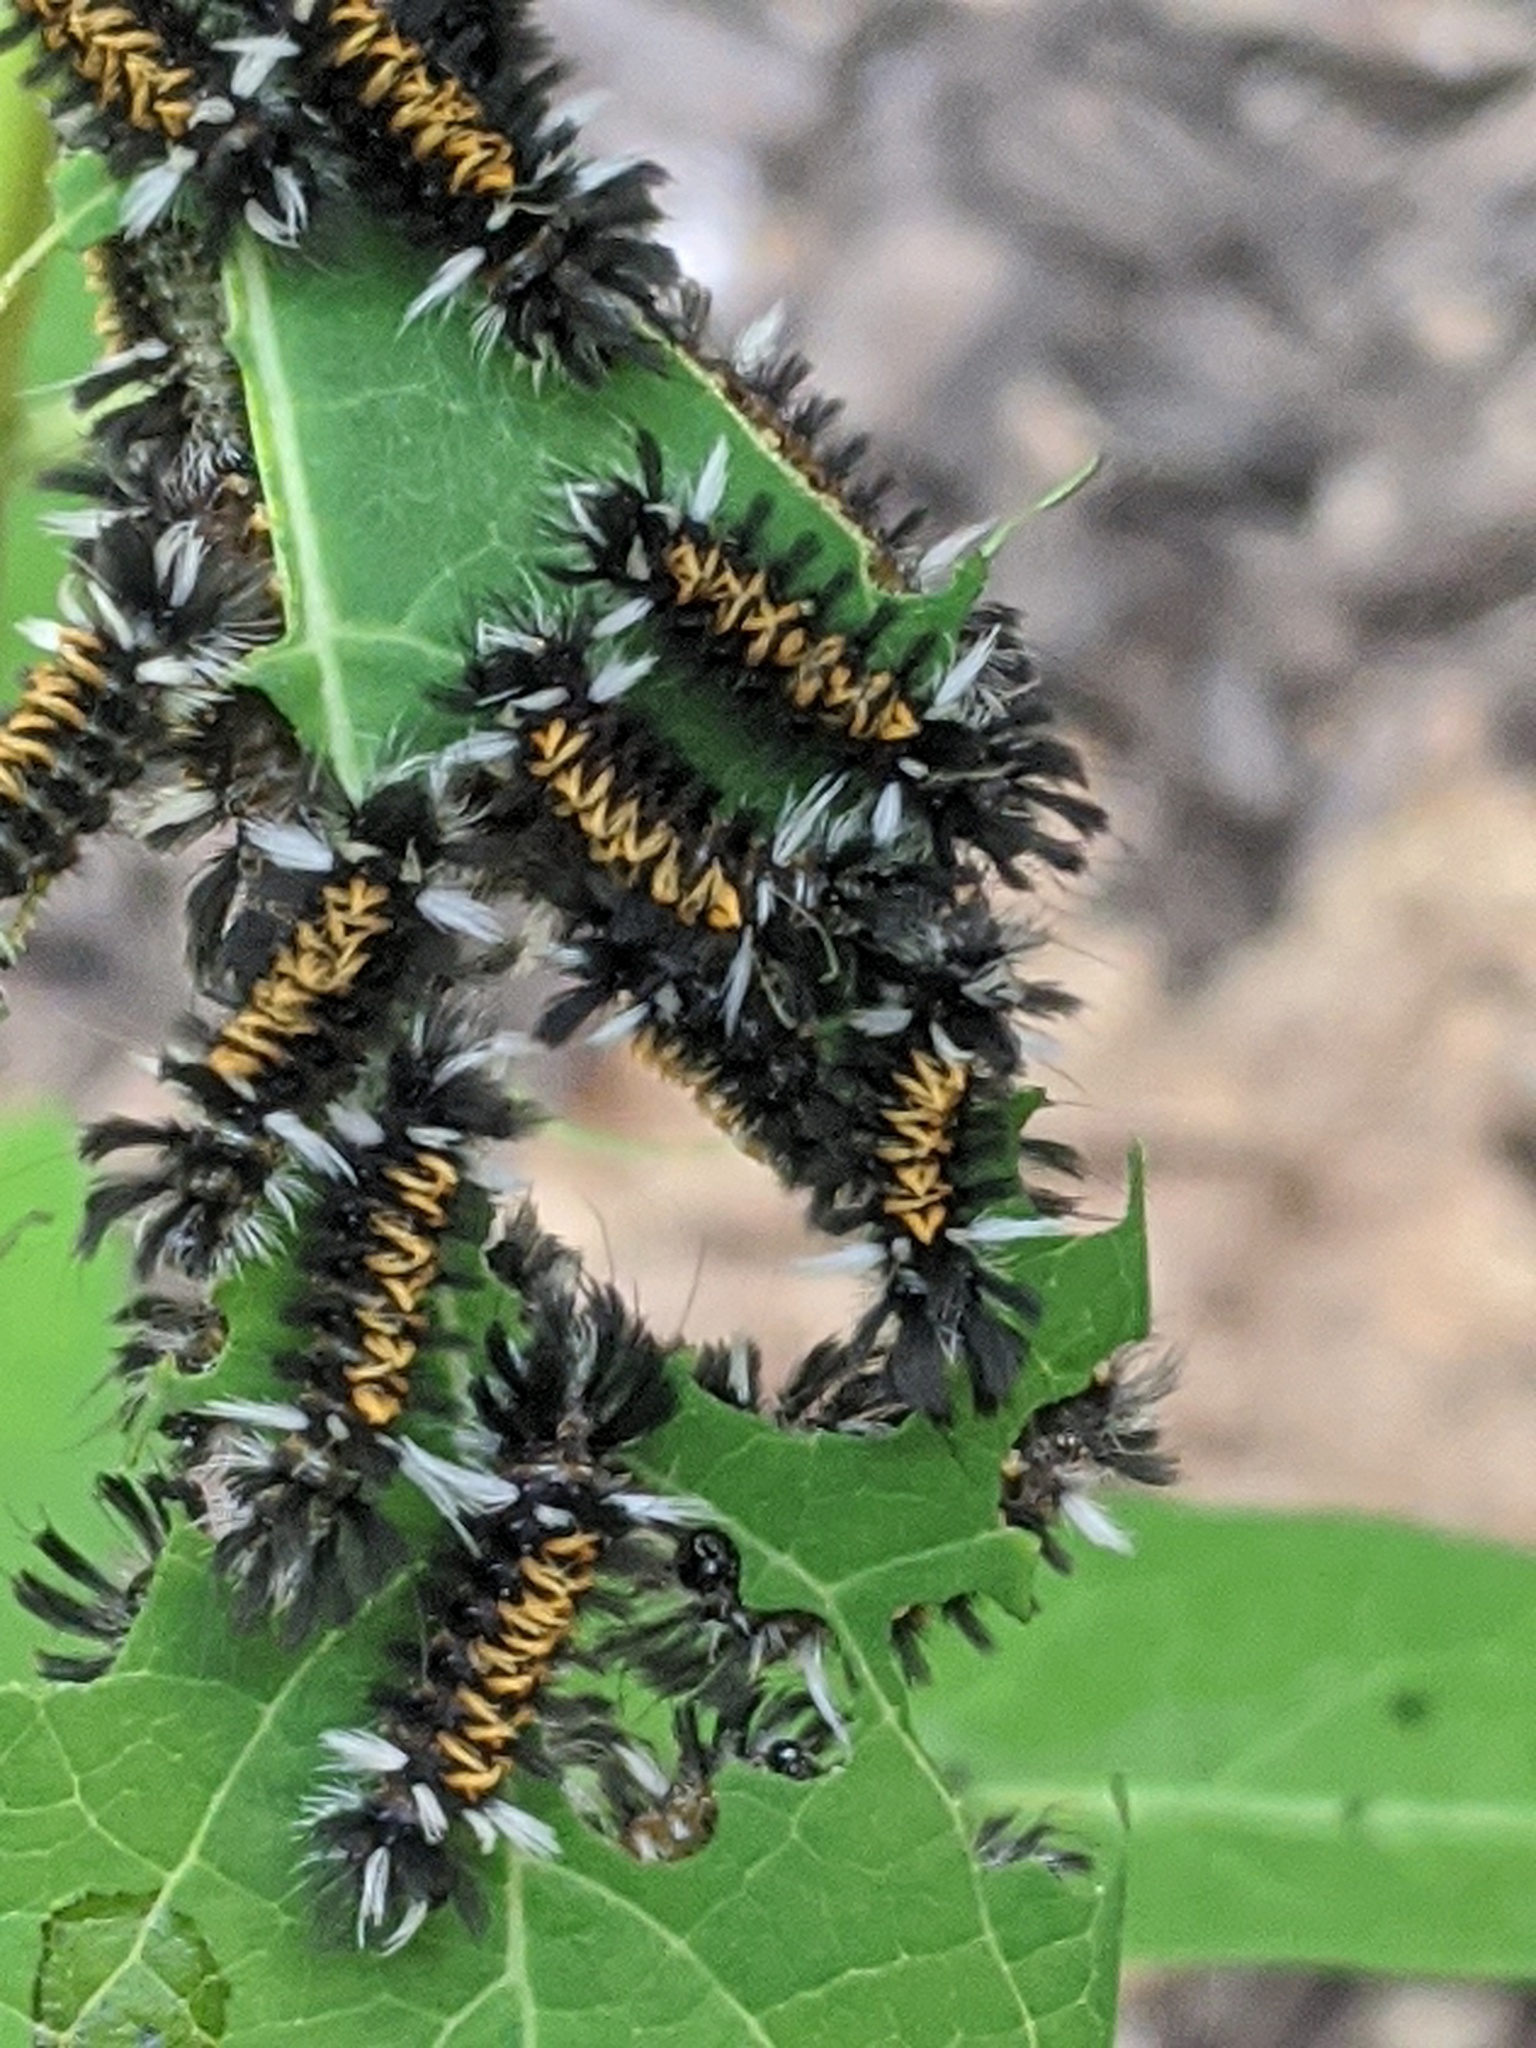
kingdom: Animalia
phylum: Arthropoda
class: Insecta
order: Lepidoptera
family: Erebidae
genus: Euchaetes
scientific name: Euchaetes egle
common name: Milkweed tussock moth
